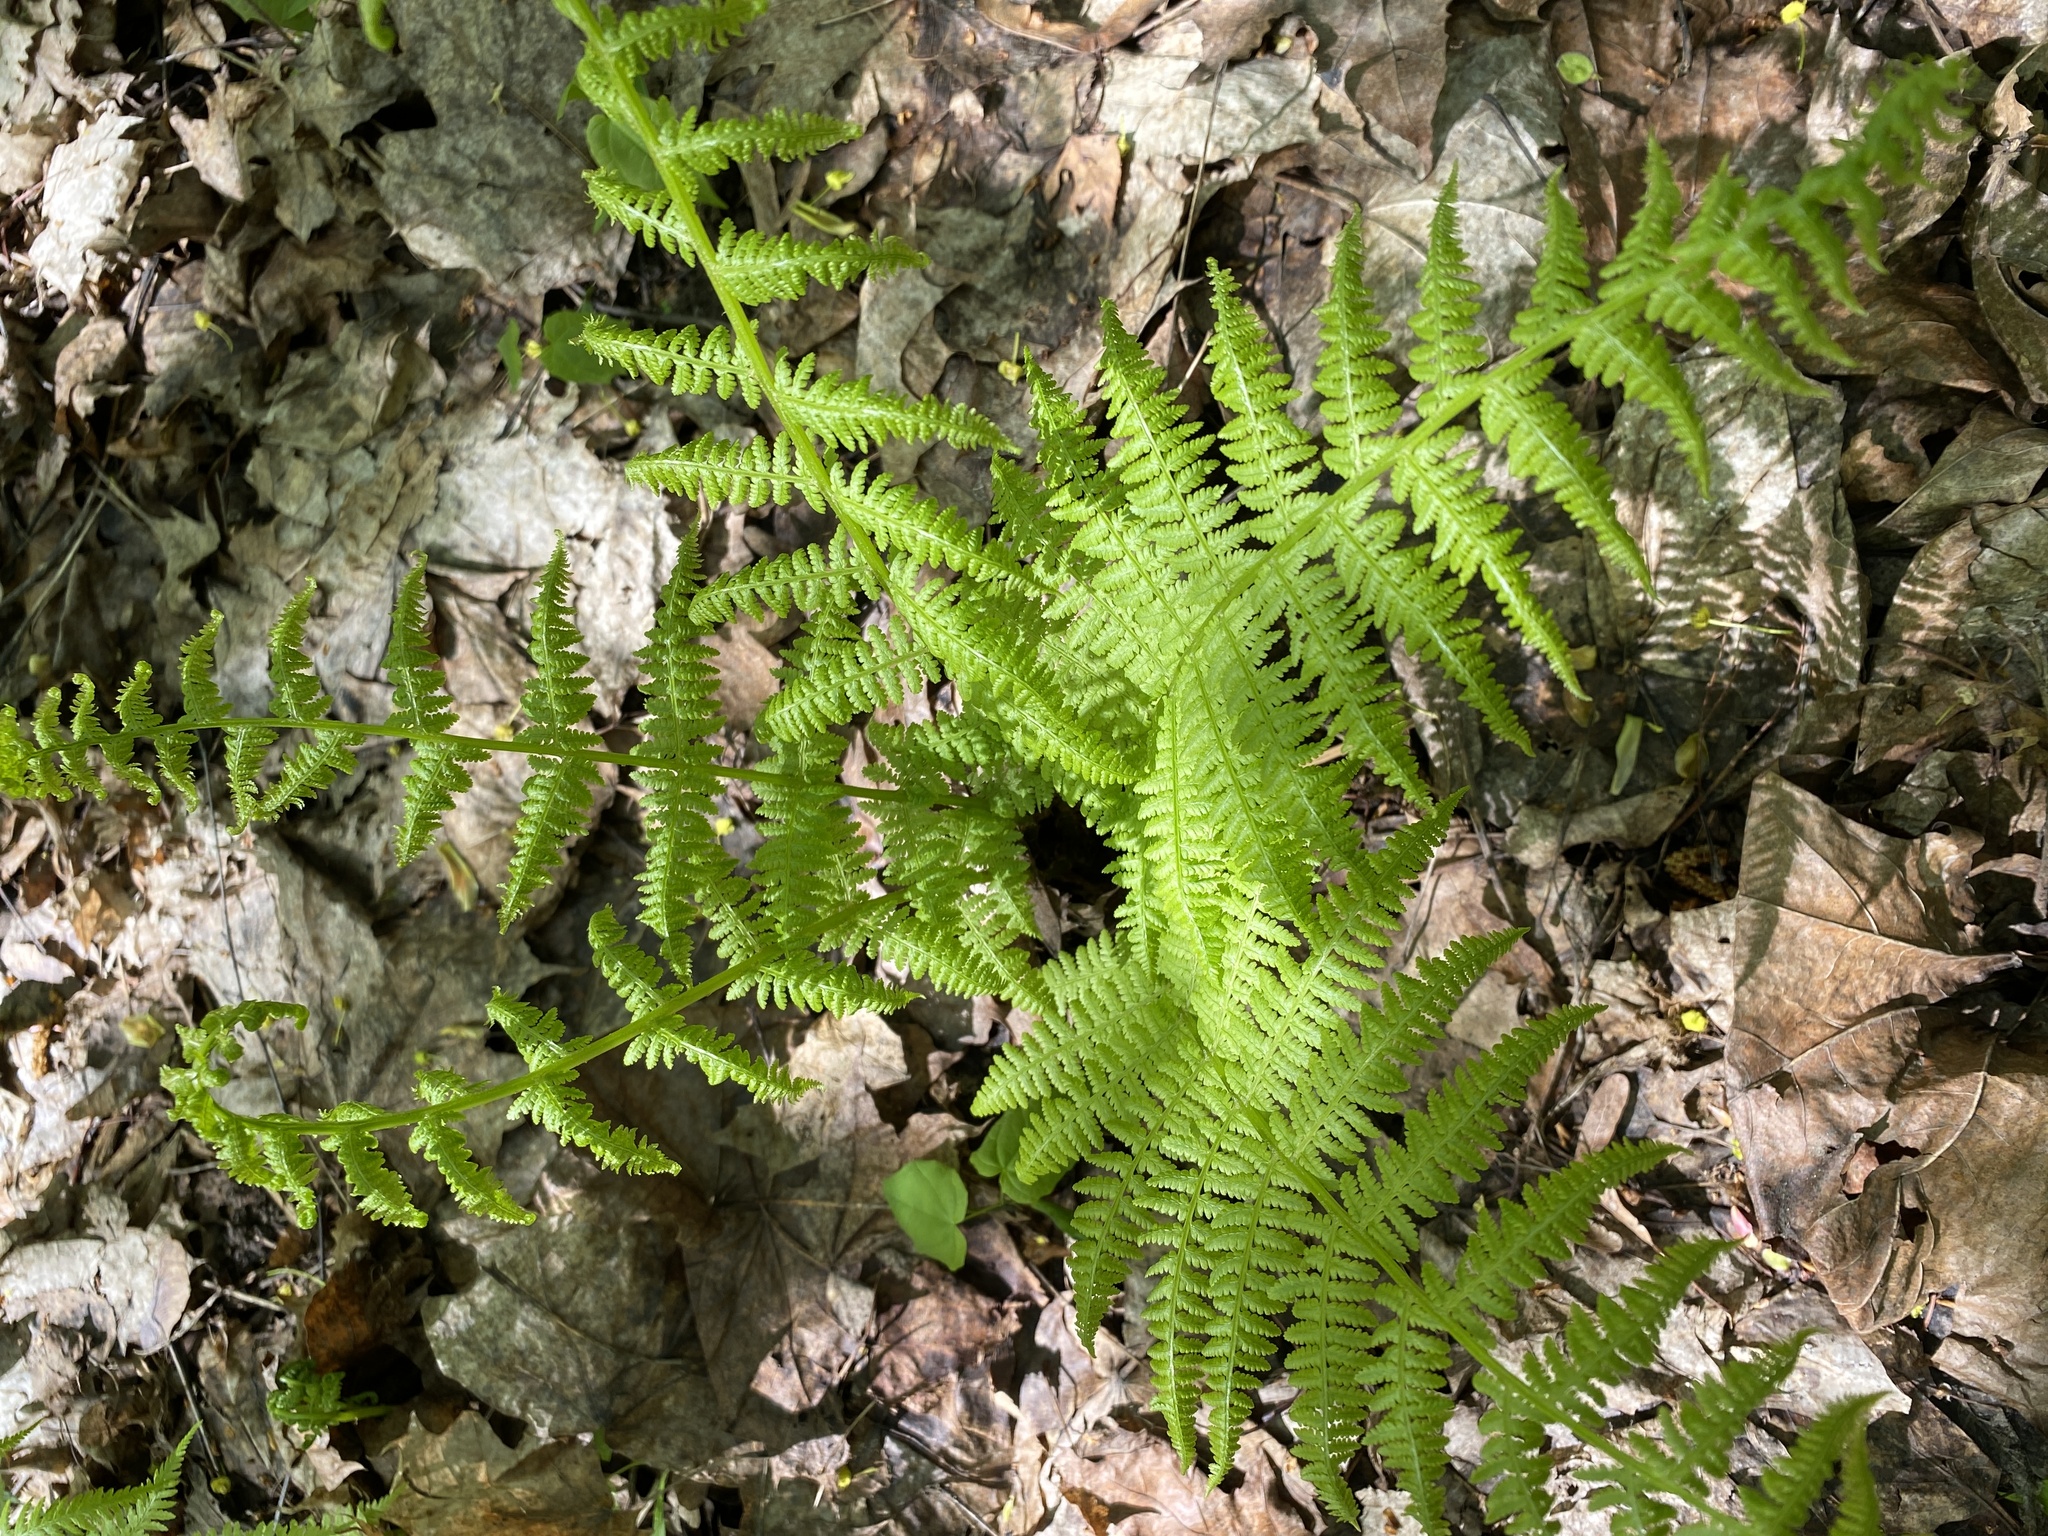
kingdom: Plantae
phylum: Tracheophyta
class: Polypodiopsida
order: Polypodiales
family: Athyriaceae
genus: Athyrium
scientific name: Athyrium filix-femina
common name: Lady fern
